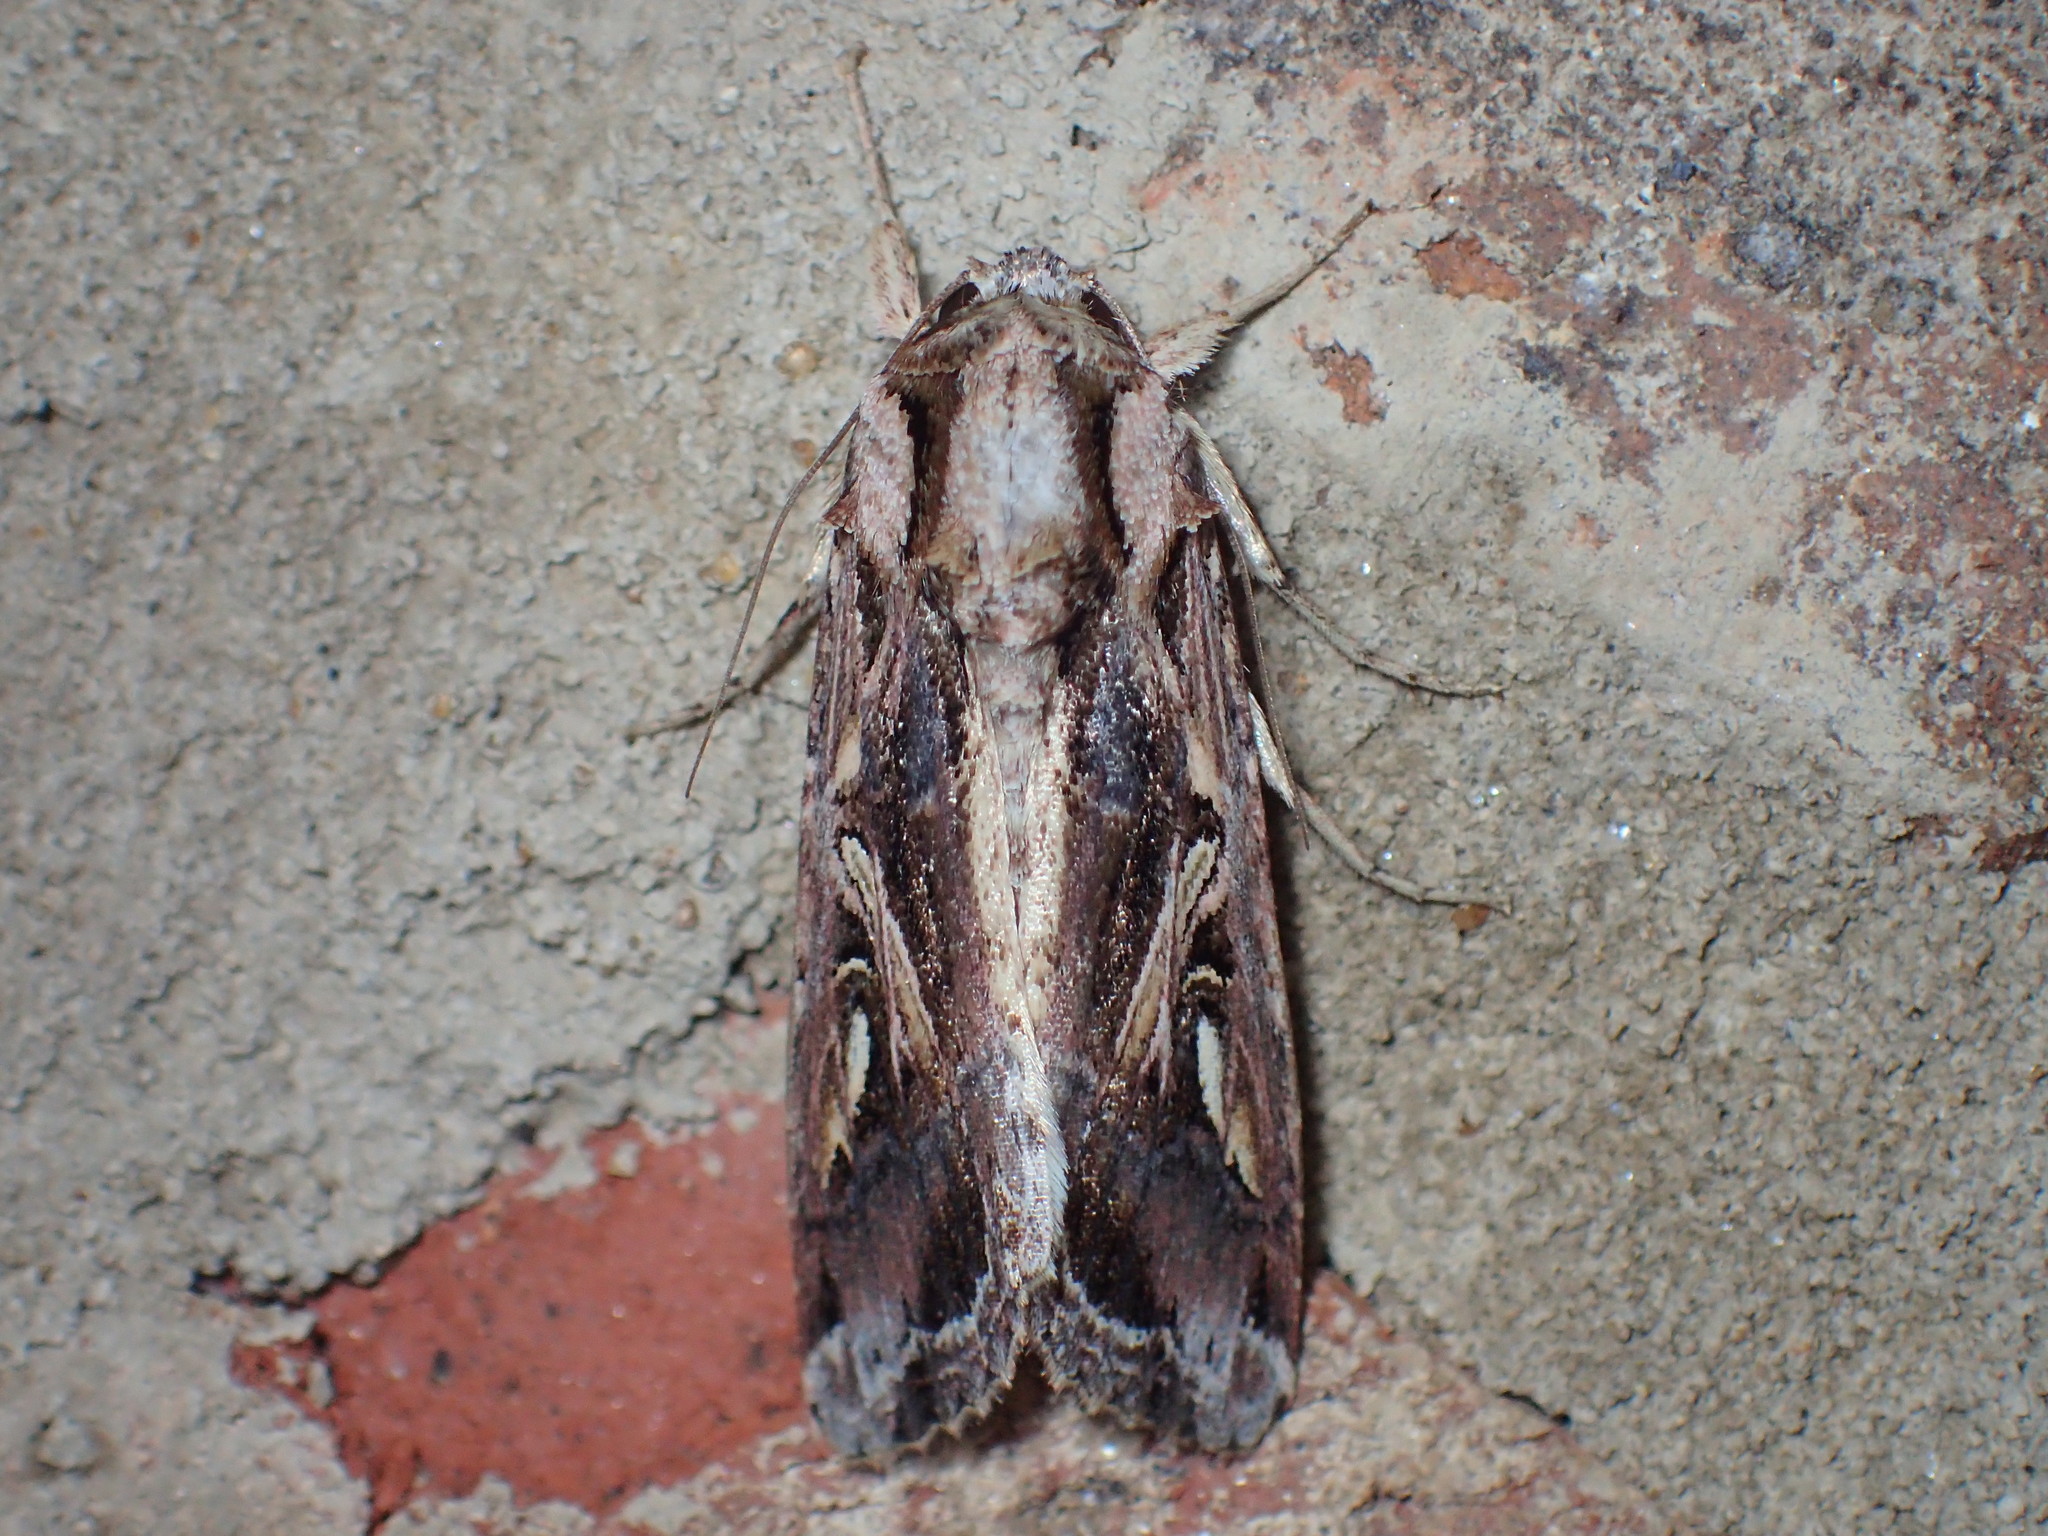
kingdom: Animalia
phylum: Arthropoda
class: Insecta
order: Lepidoptera
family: Noctuidae
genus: Spodoptera
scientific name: Spodoptera dolichos
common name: Sweetpotato armyworm
